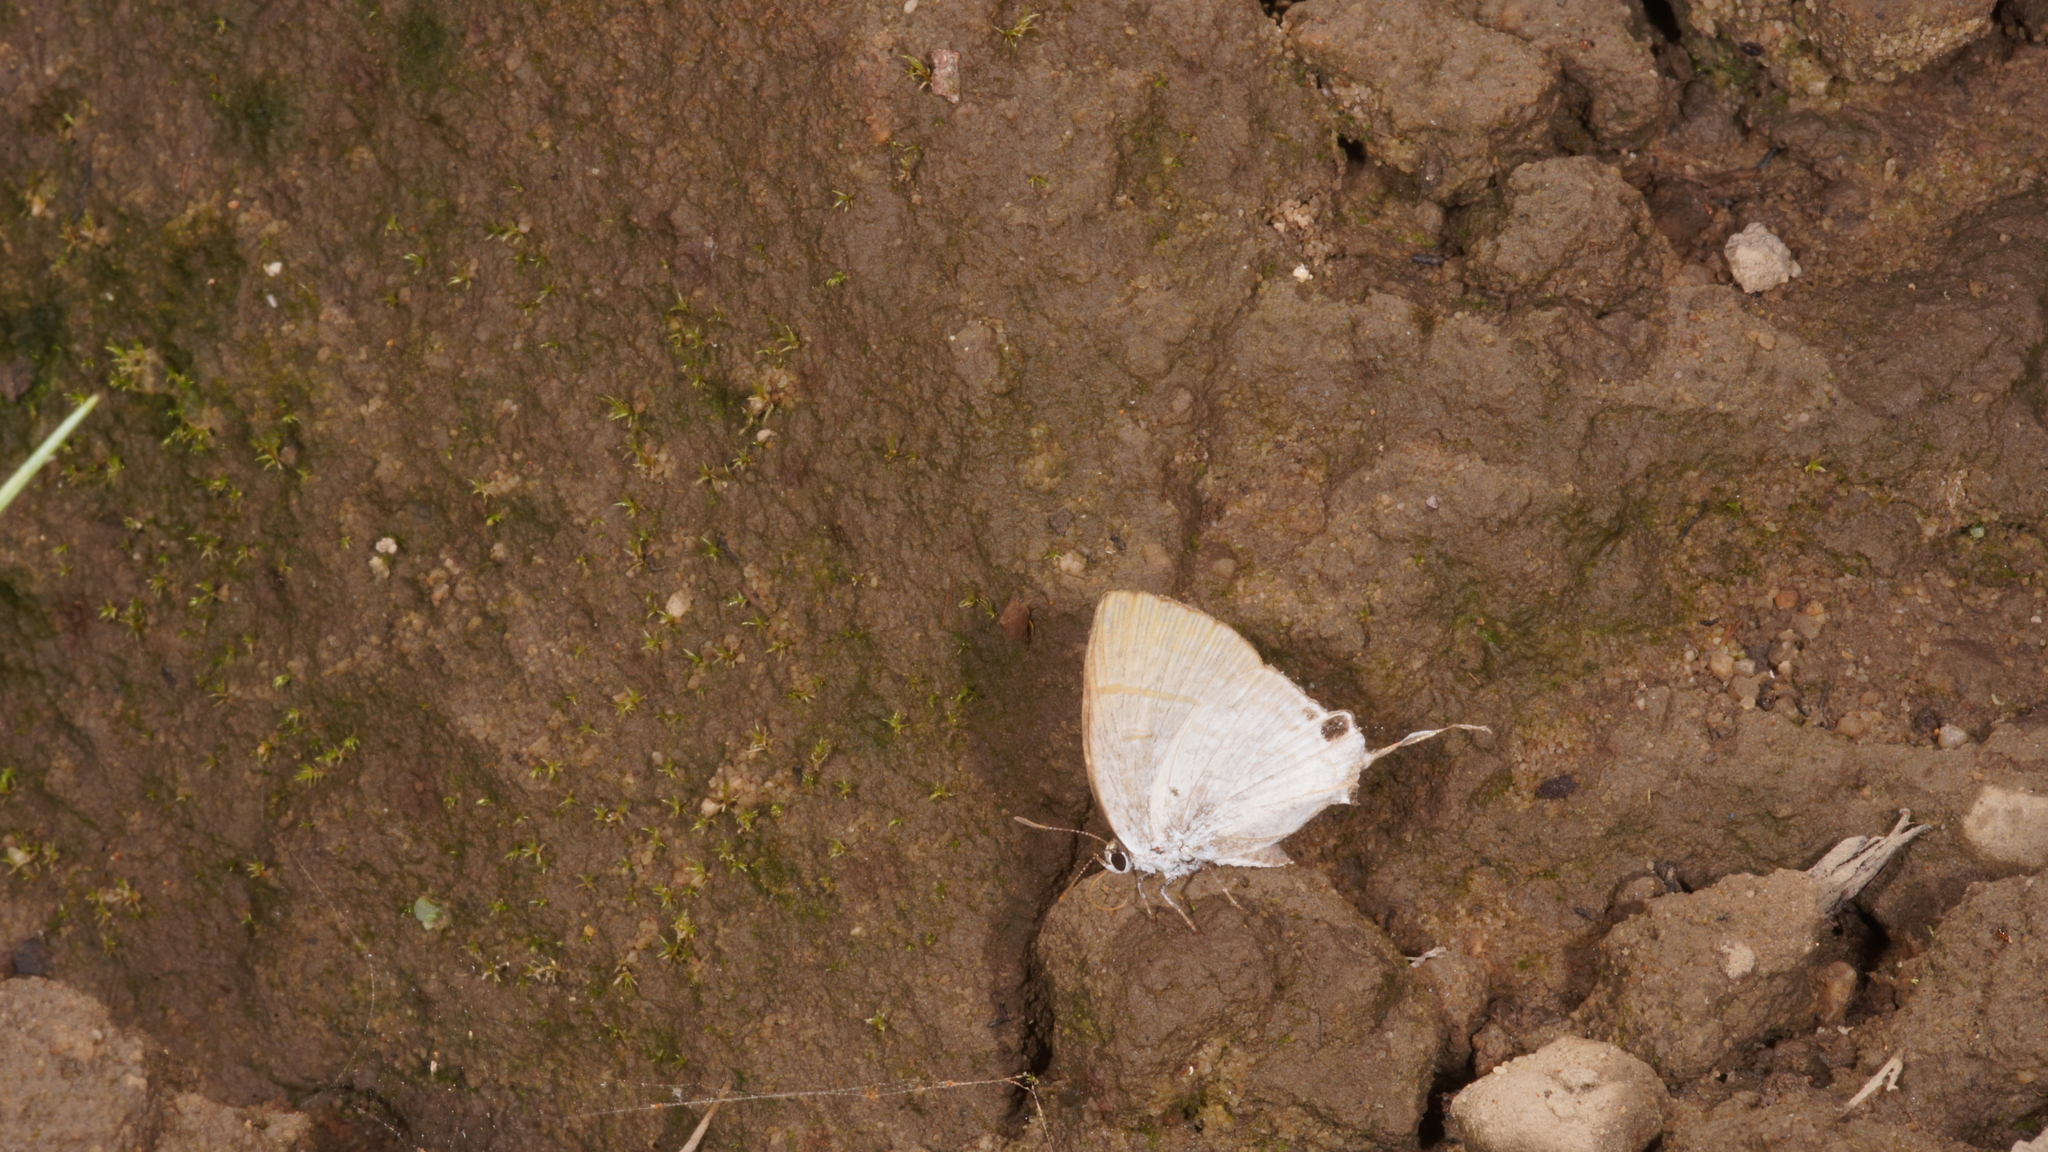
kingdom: Animalia
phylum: Arthropoda
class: Insecta
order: Lepidoptera
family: Lycaenidae
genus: Zeltus
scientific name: Zeltus amasa
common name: Fluffy tit
